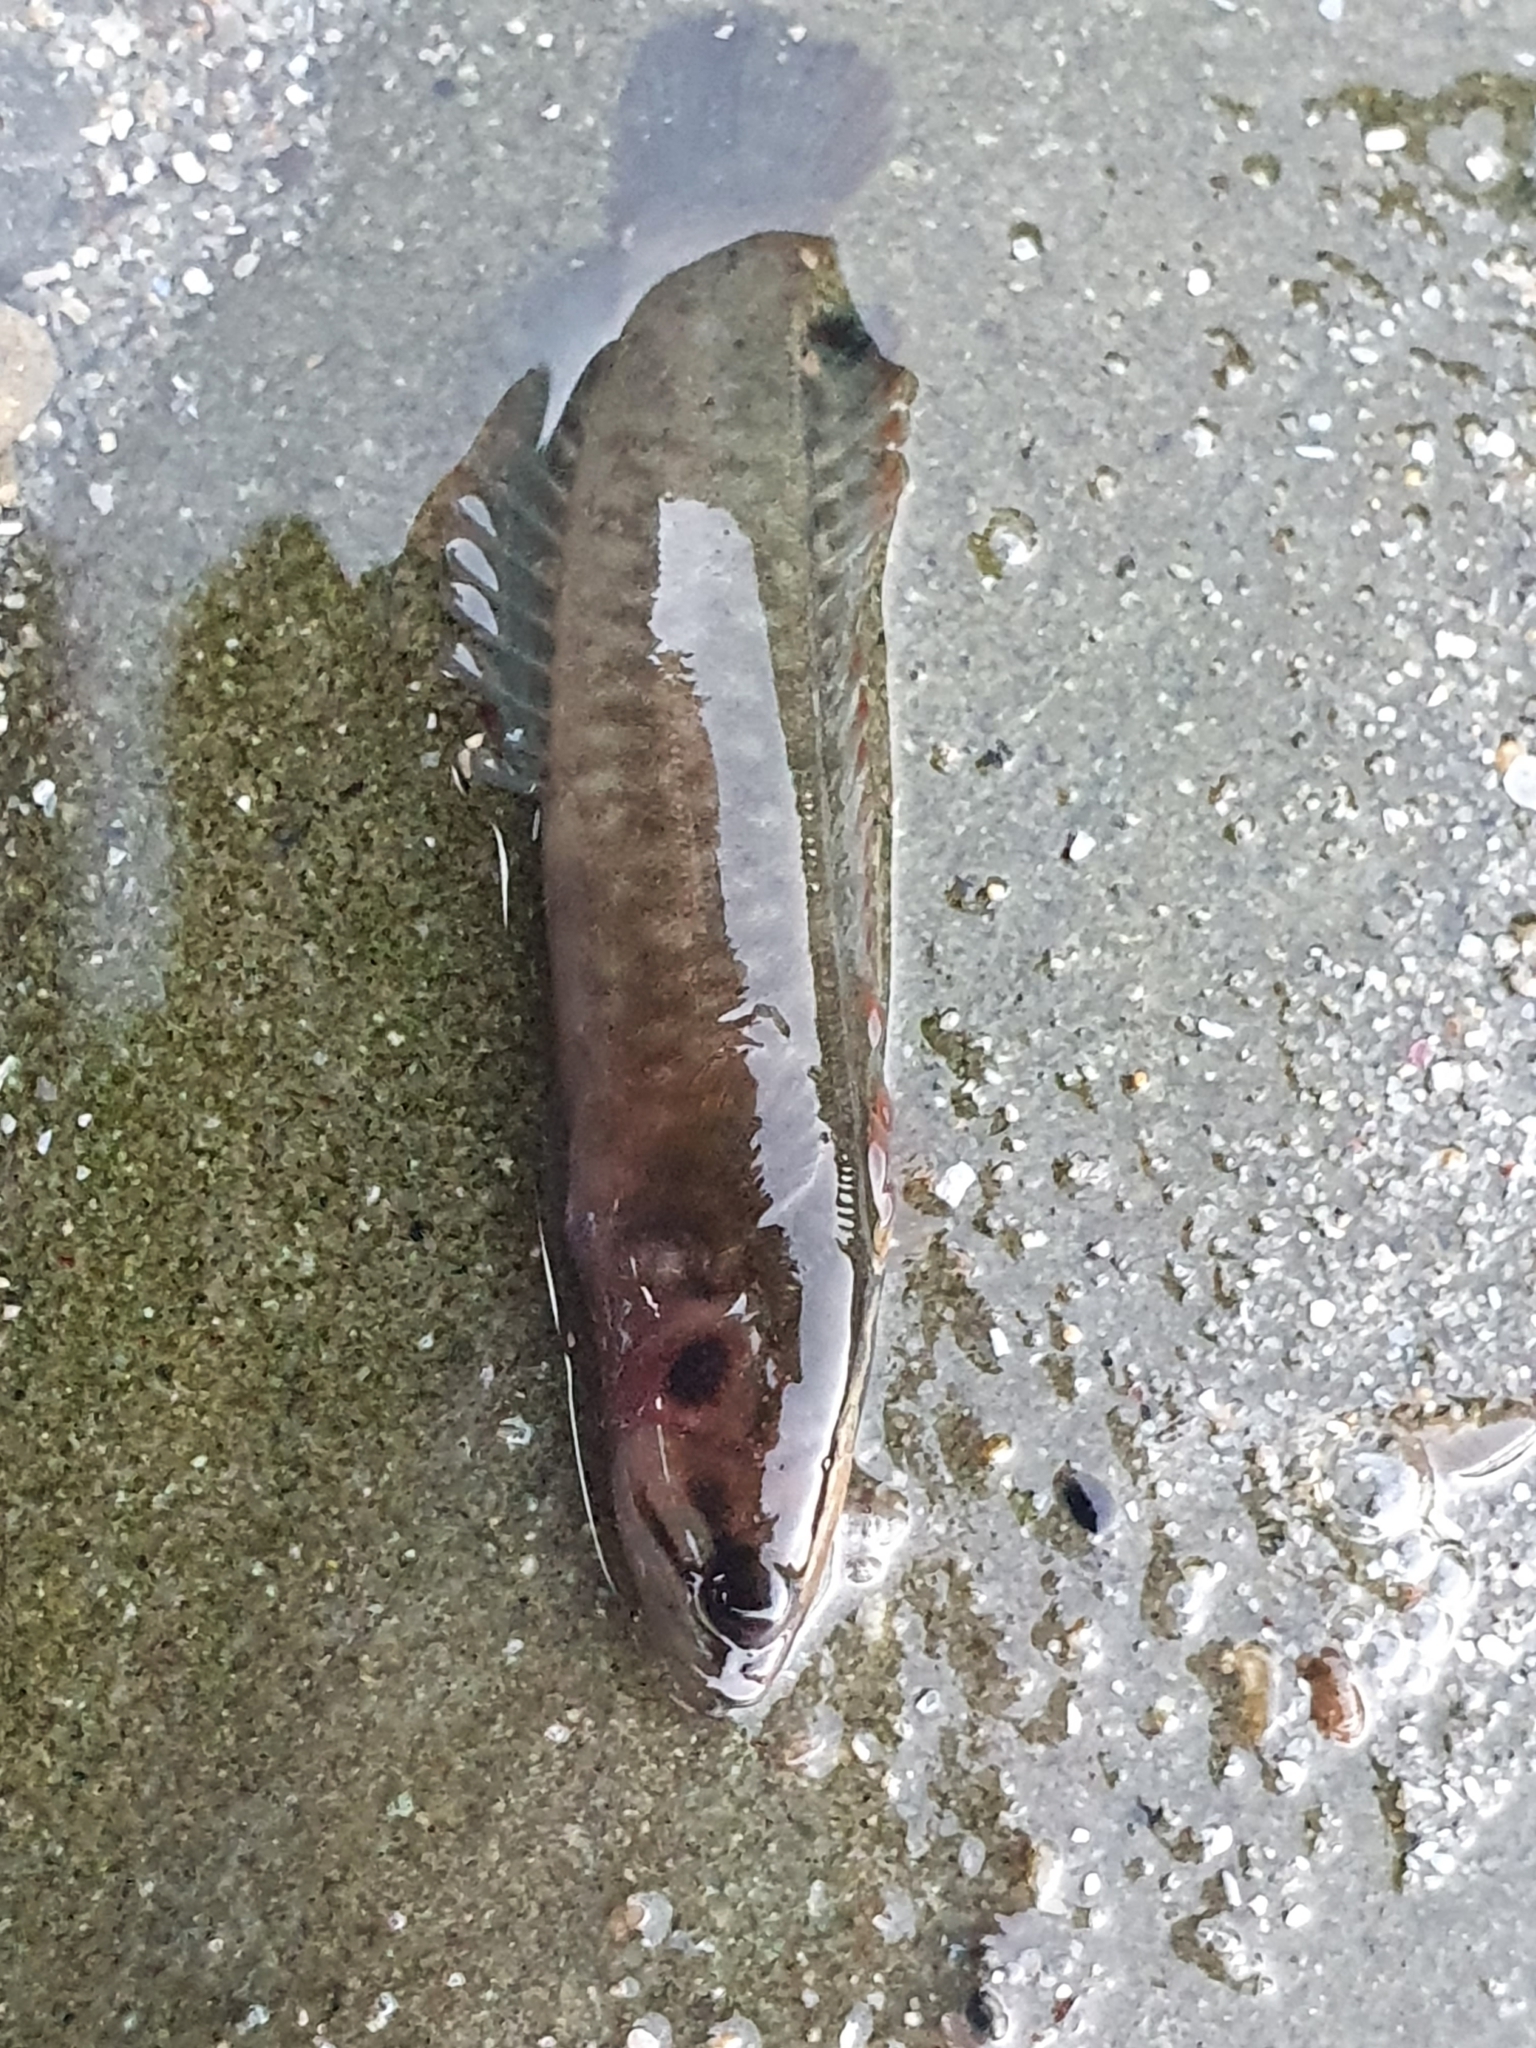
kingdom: Animalia
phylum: Chordata
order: Perciformes
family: Plesiopidae
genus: Acanthoclinus
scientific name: Acanthoclinus fuscus
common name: Olive rockfish
